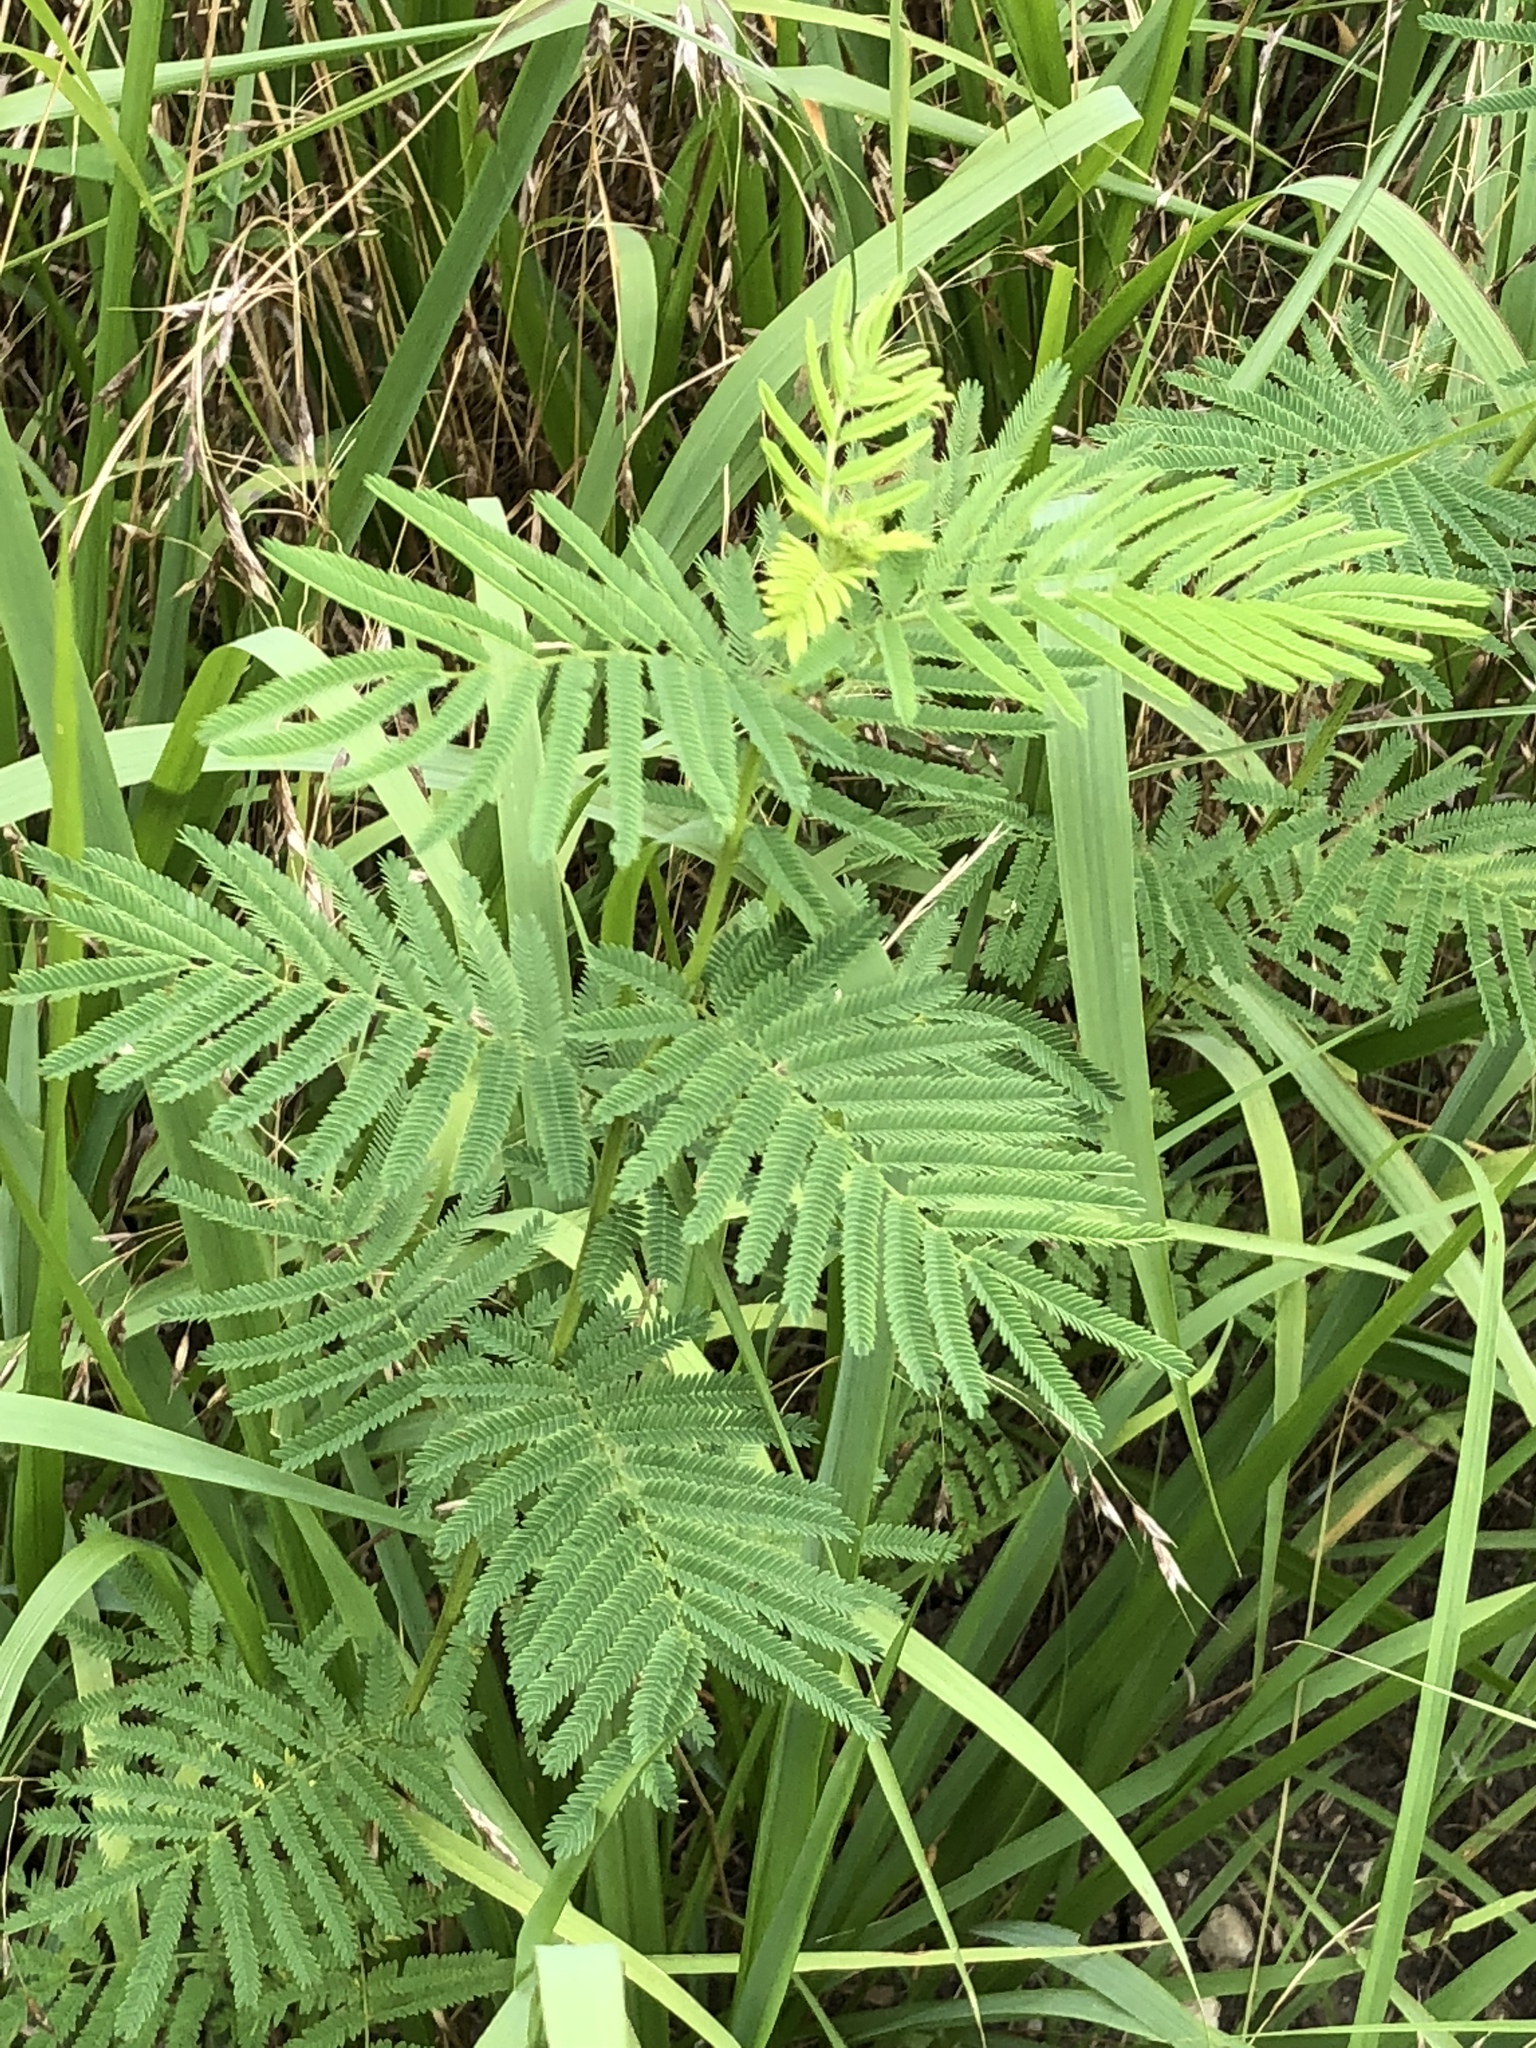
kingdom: Plantae
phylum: Tracheophyta
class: Magnoliopsida
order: Fabales
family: Fabaceae
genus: Desmanthus
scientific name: Desmanthus illinoensis
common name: Illinois bundle-flower
